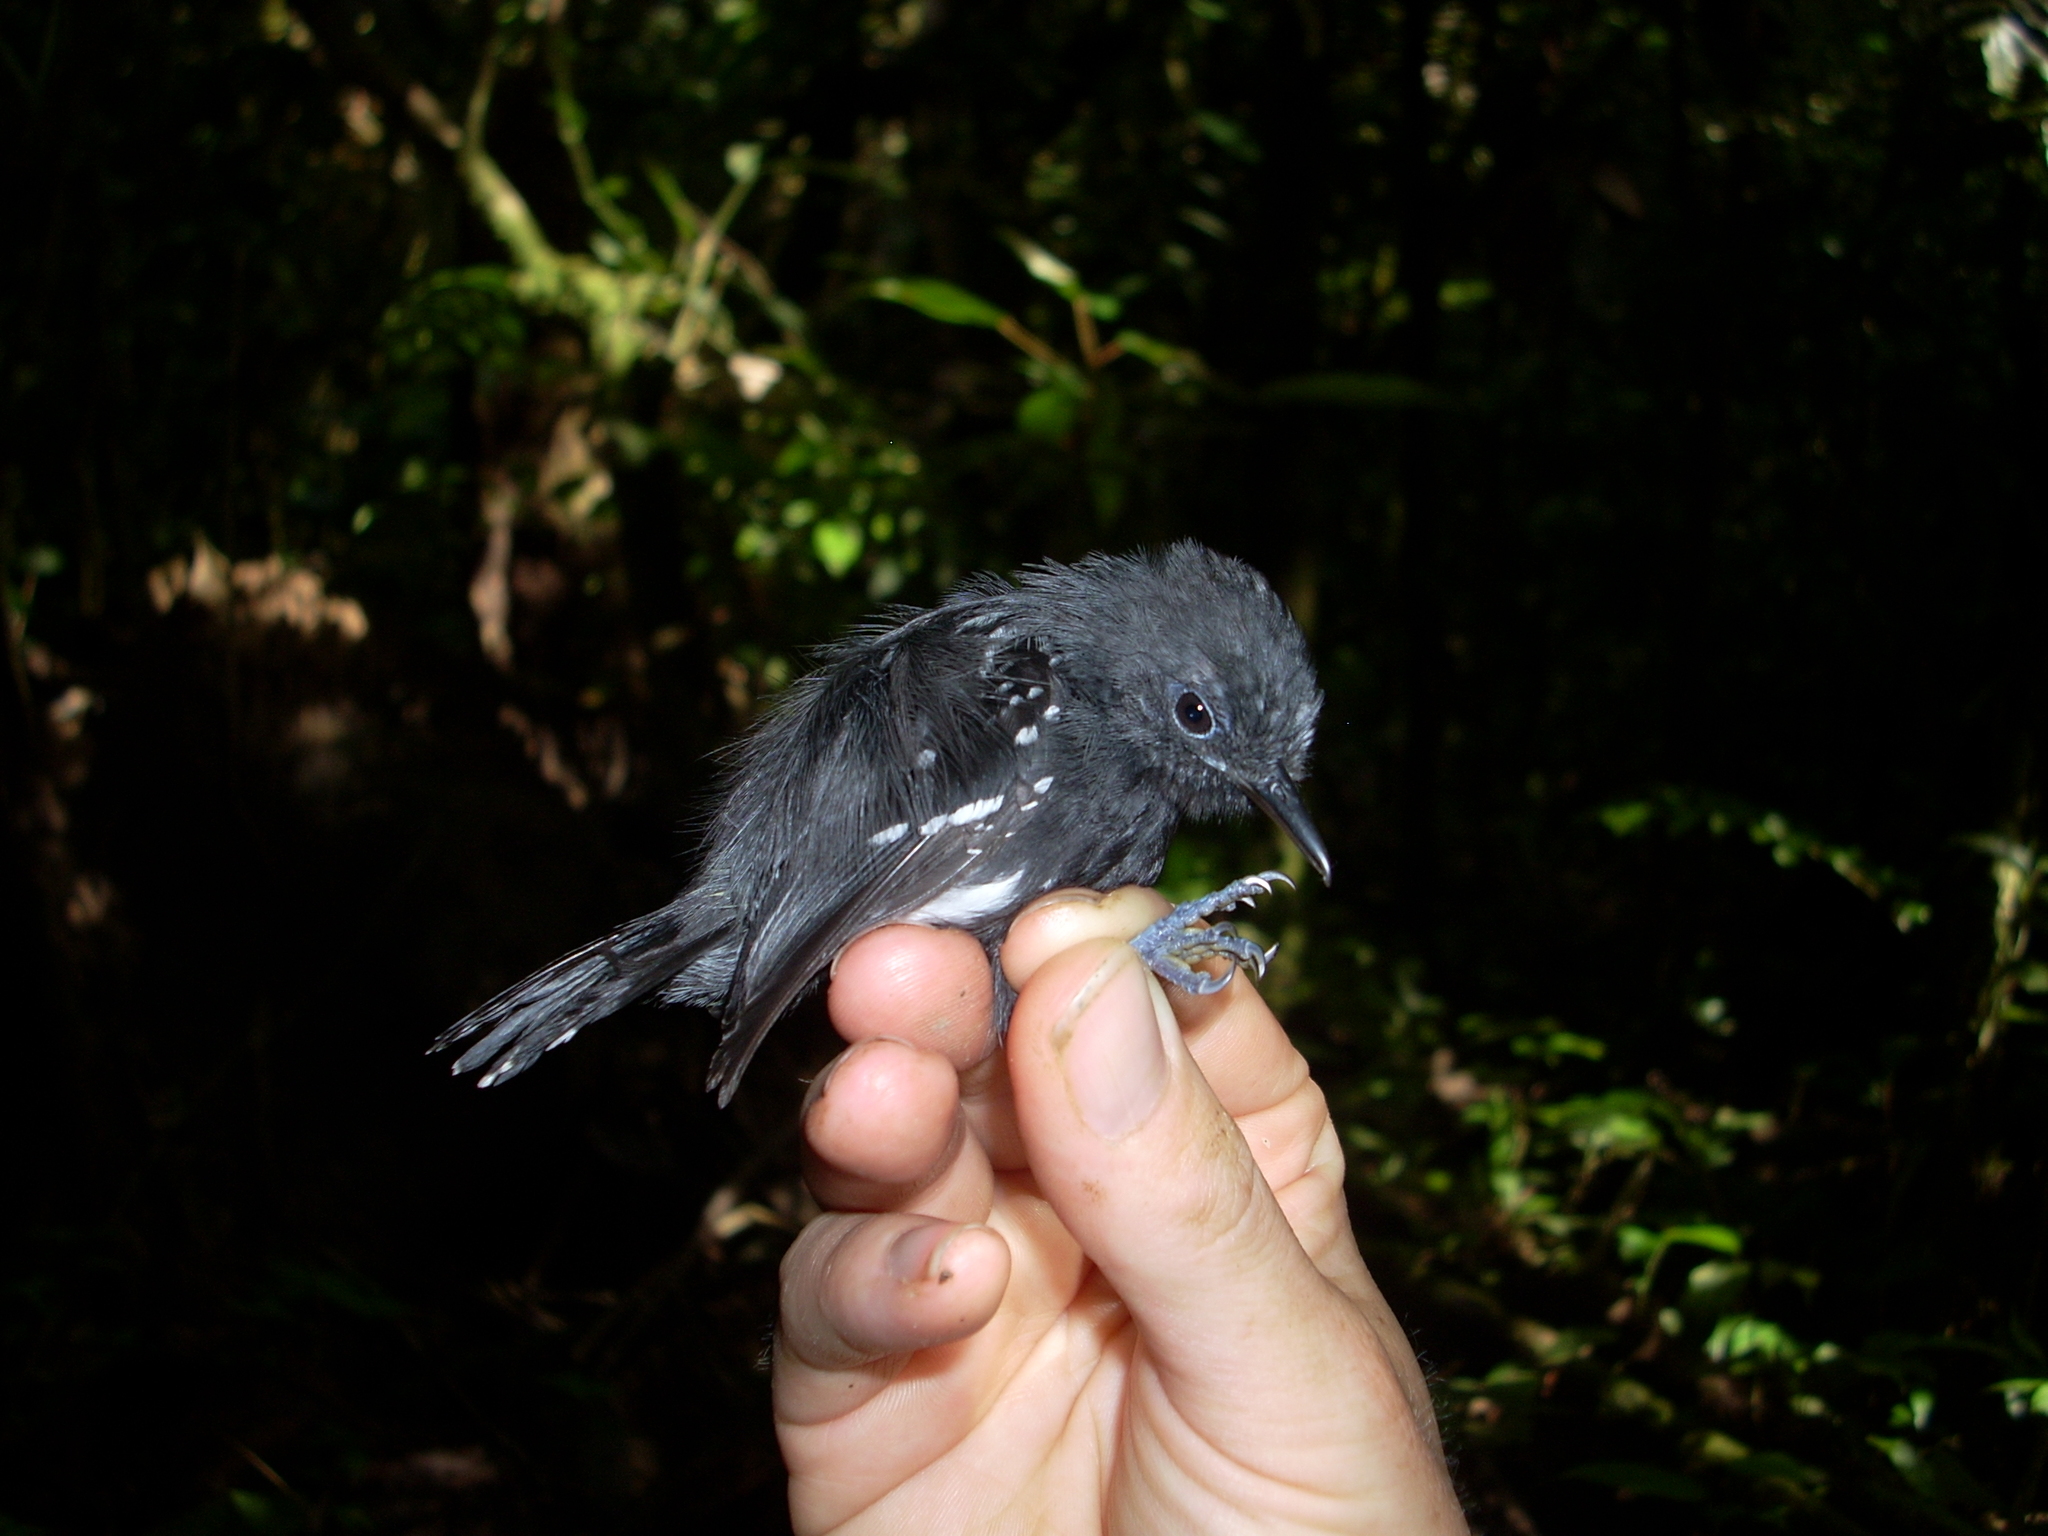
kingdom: Animalia
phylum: Chordata
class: Aves
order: Passeriformes
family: Thamnophilidae
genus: Myrmotherula
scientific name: Myrmotherula axillaris
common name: White-flanked antwren
